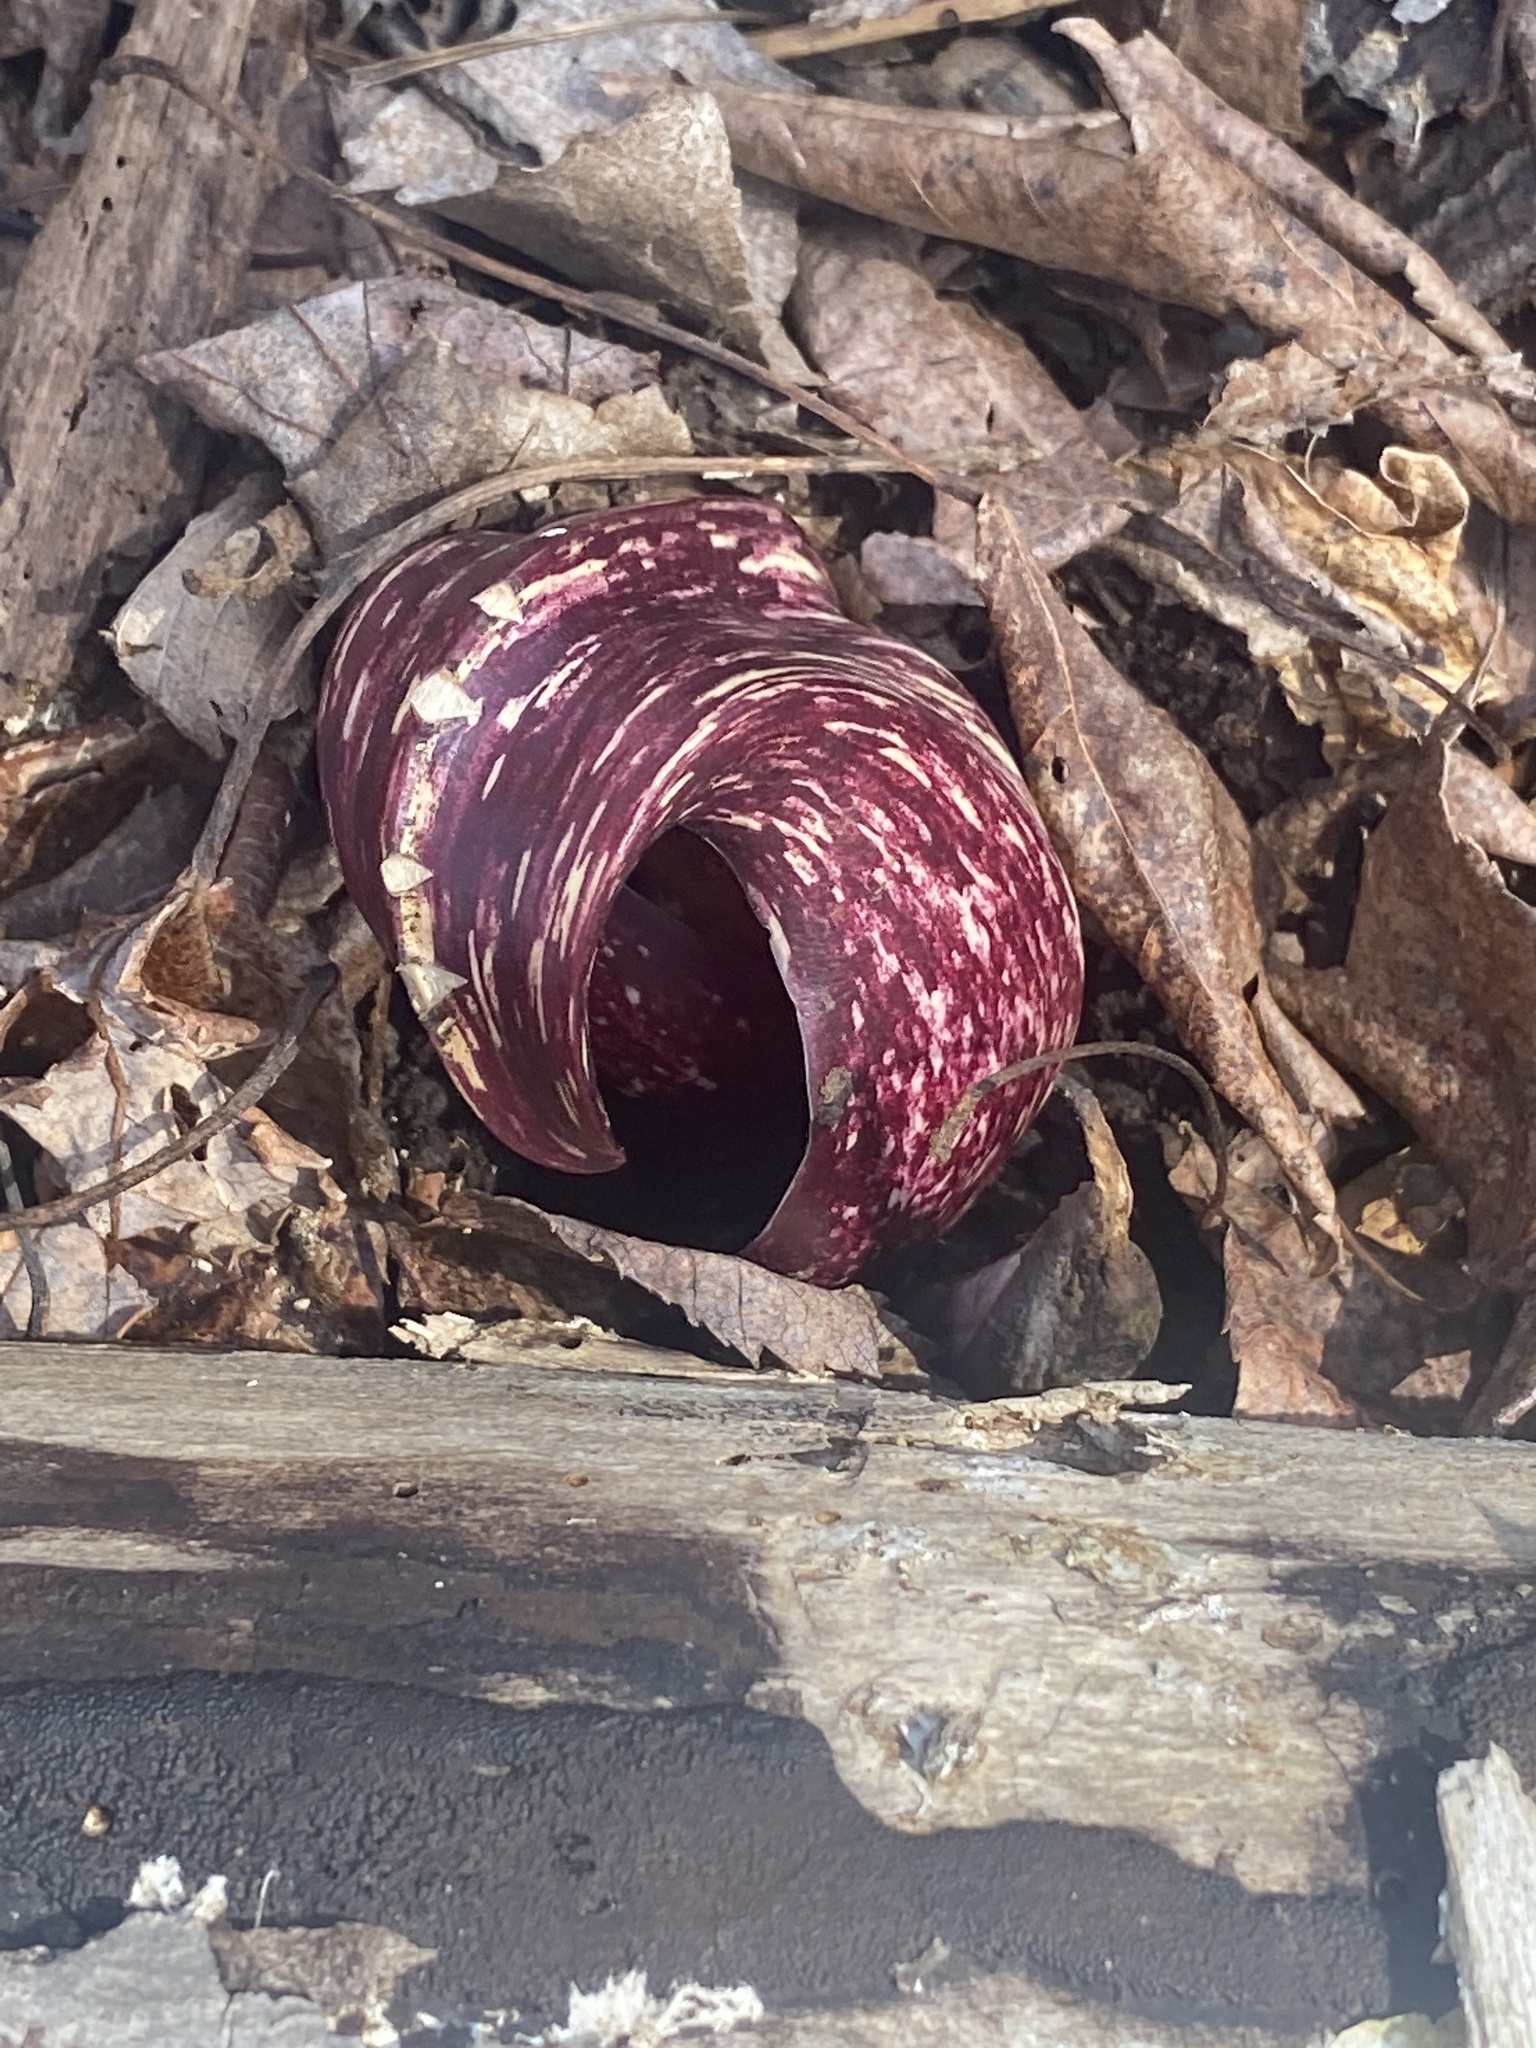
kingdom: Plantae
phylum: Tracheophyta
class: Liliopsida
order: Alismatales
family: Araceae
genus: Symplocarpus
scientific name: Symplocarpus foetidus
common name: Eastern skunk cabbage
